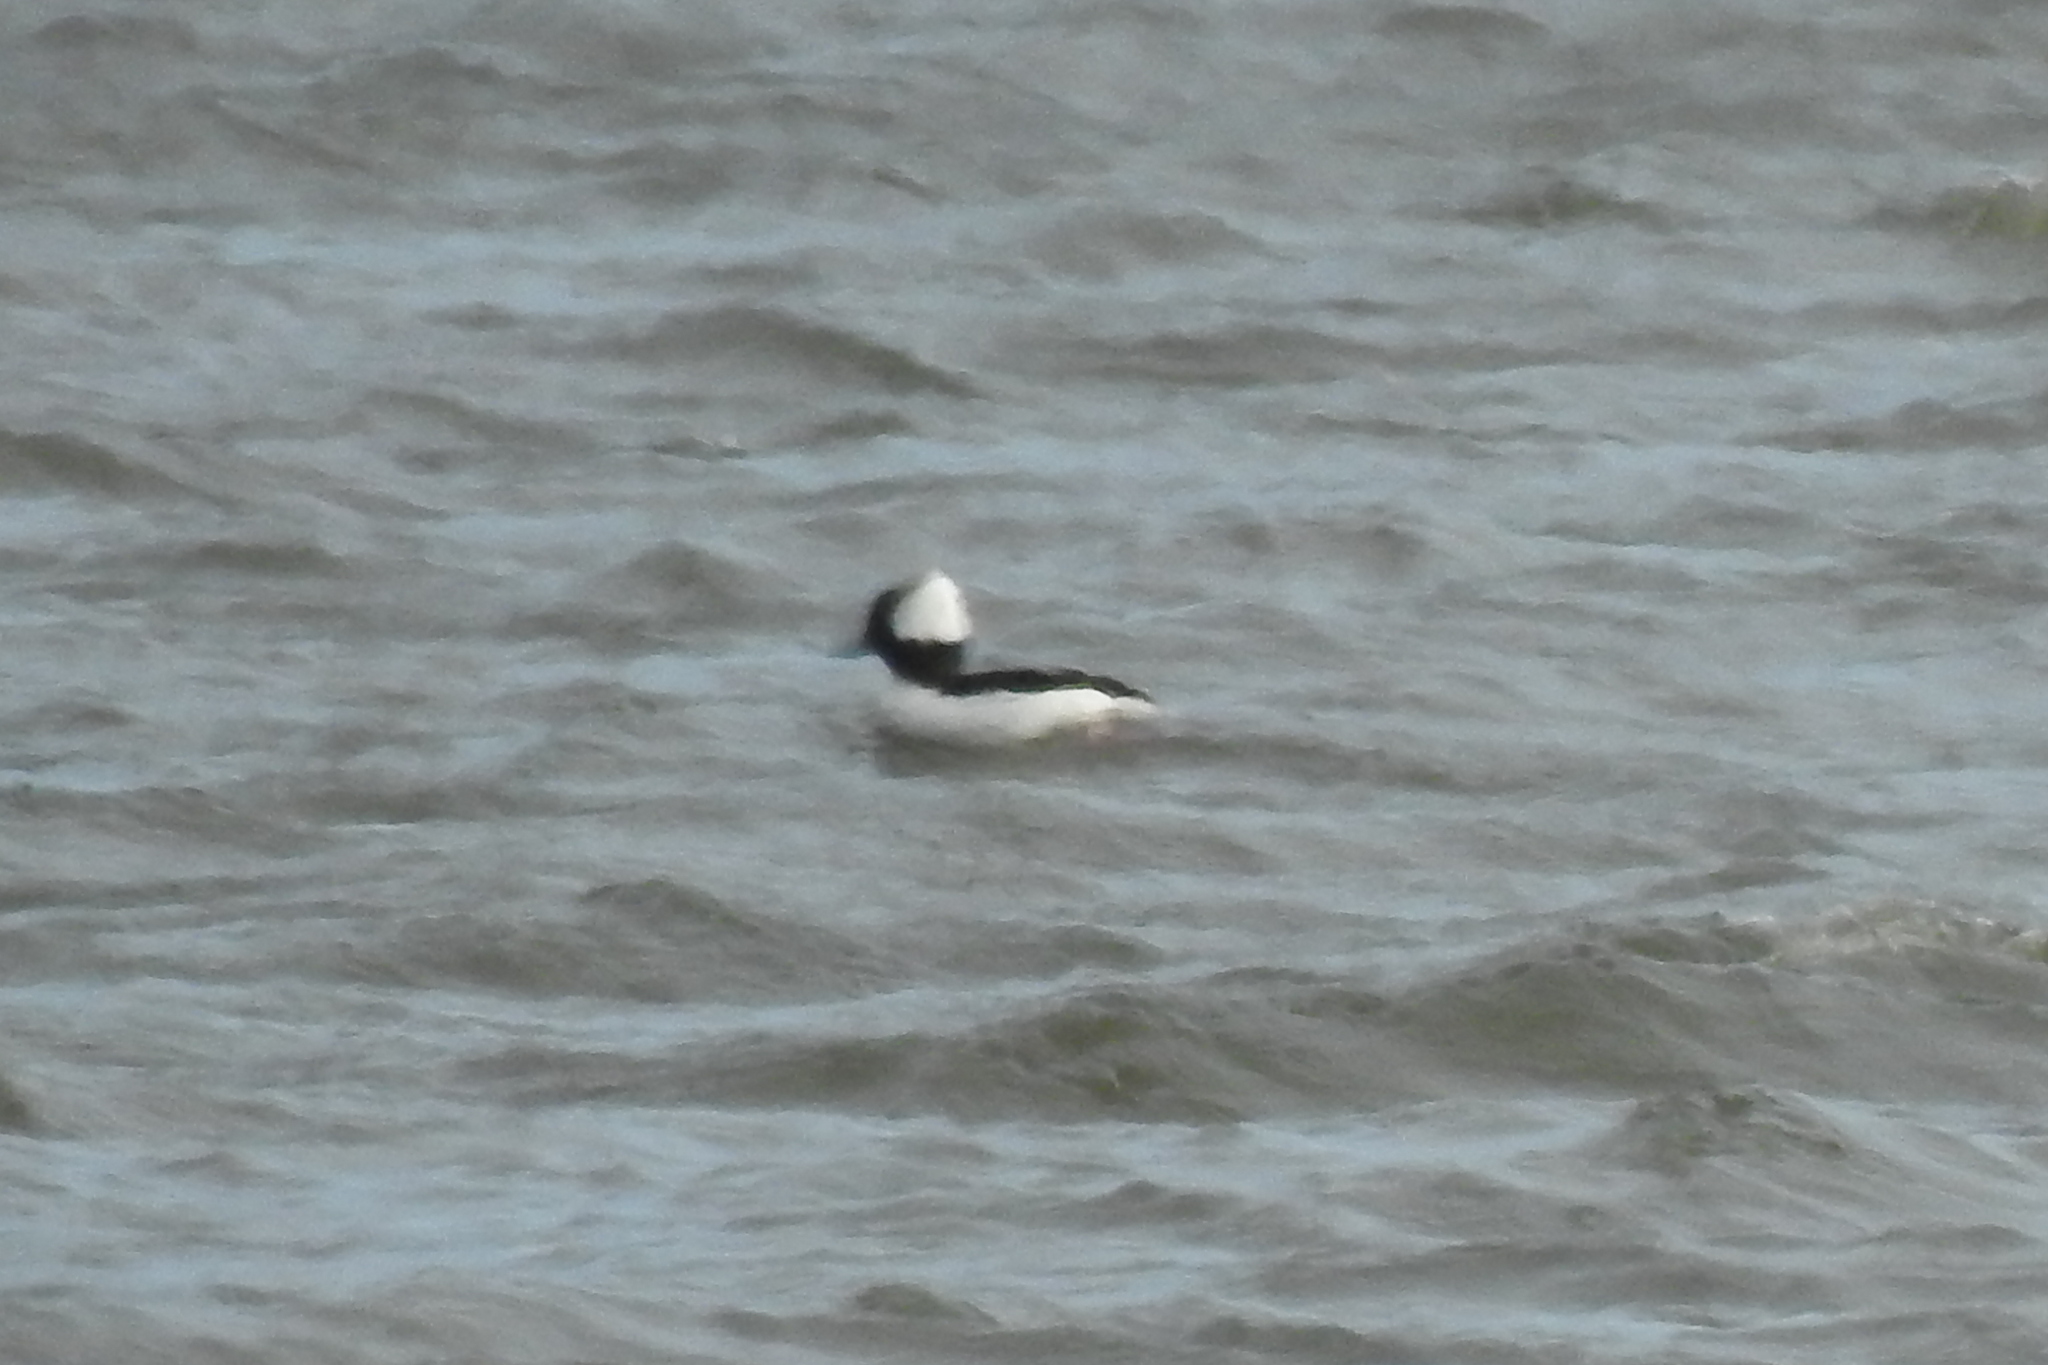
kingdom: Animalia
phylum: Chordata
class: Aves
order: Anseriformes
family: Anatidae
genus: Bucephala
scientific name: Bucephala albeola
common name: Bufflehead
